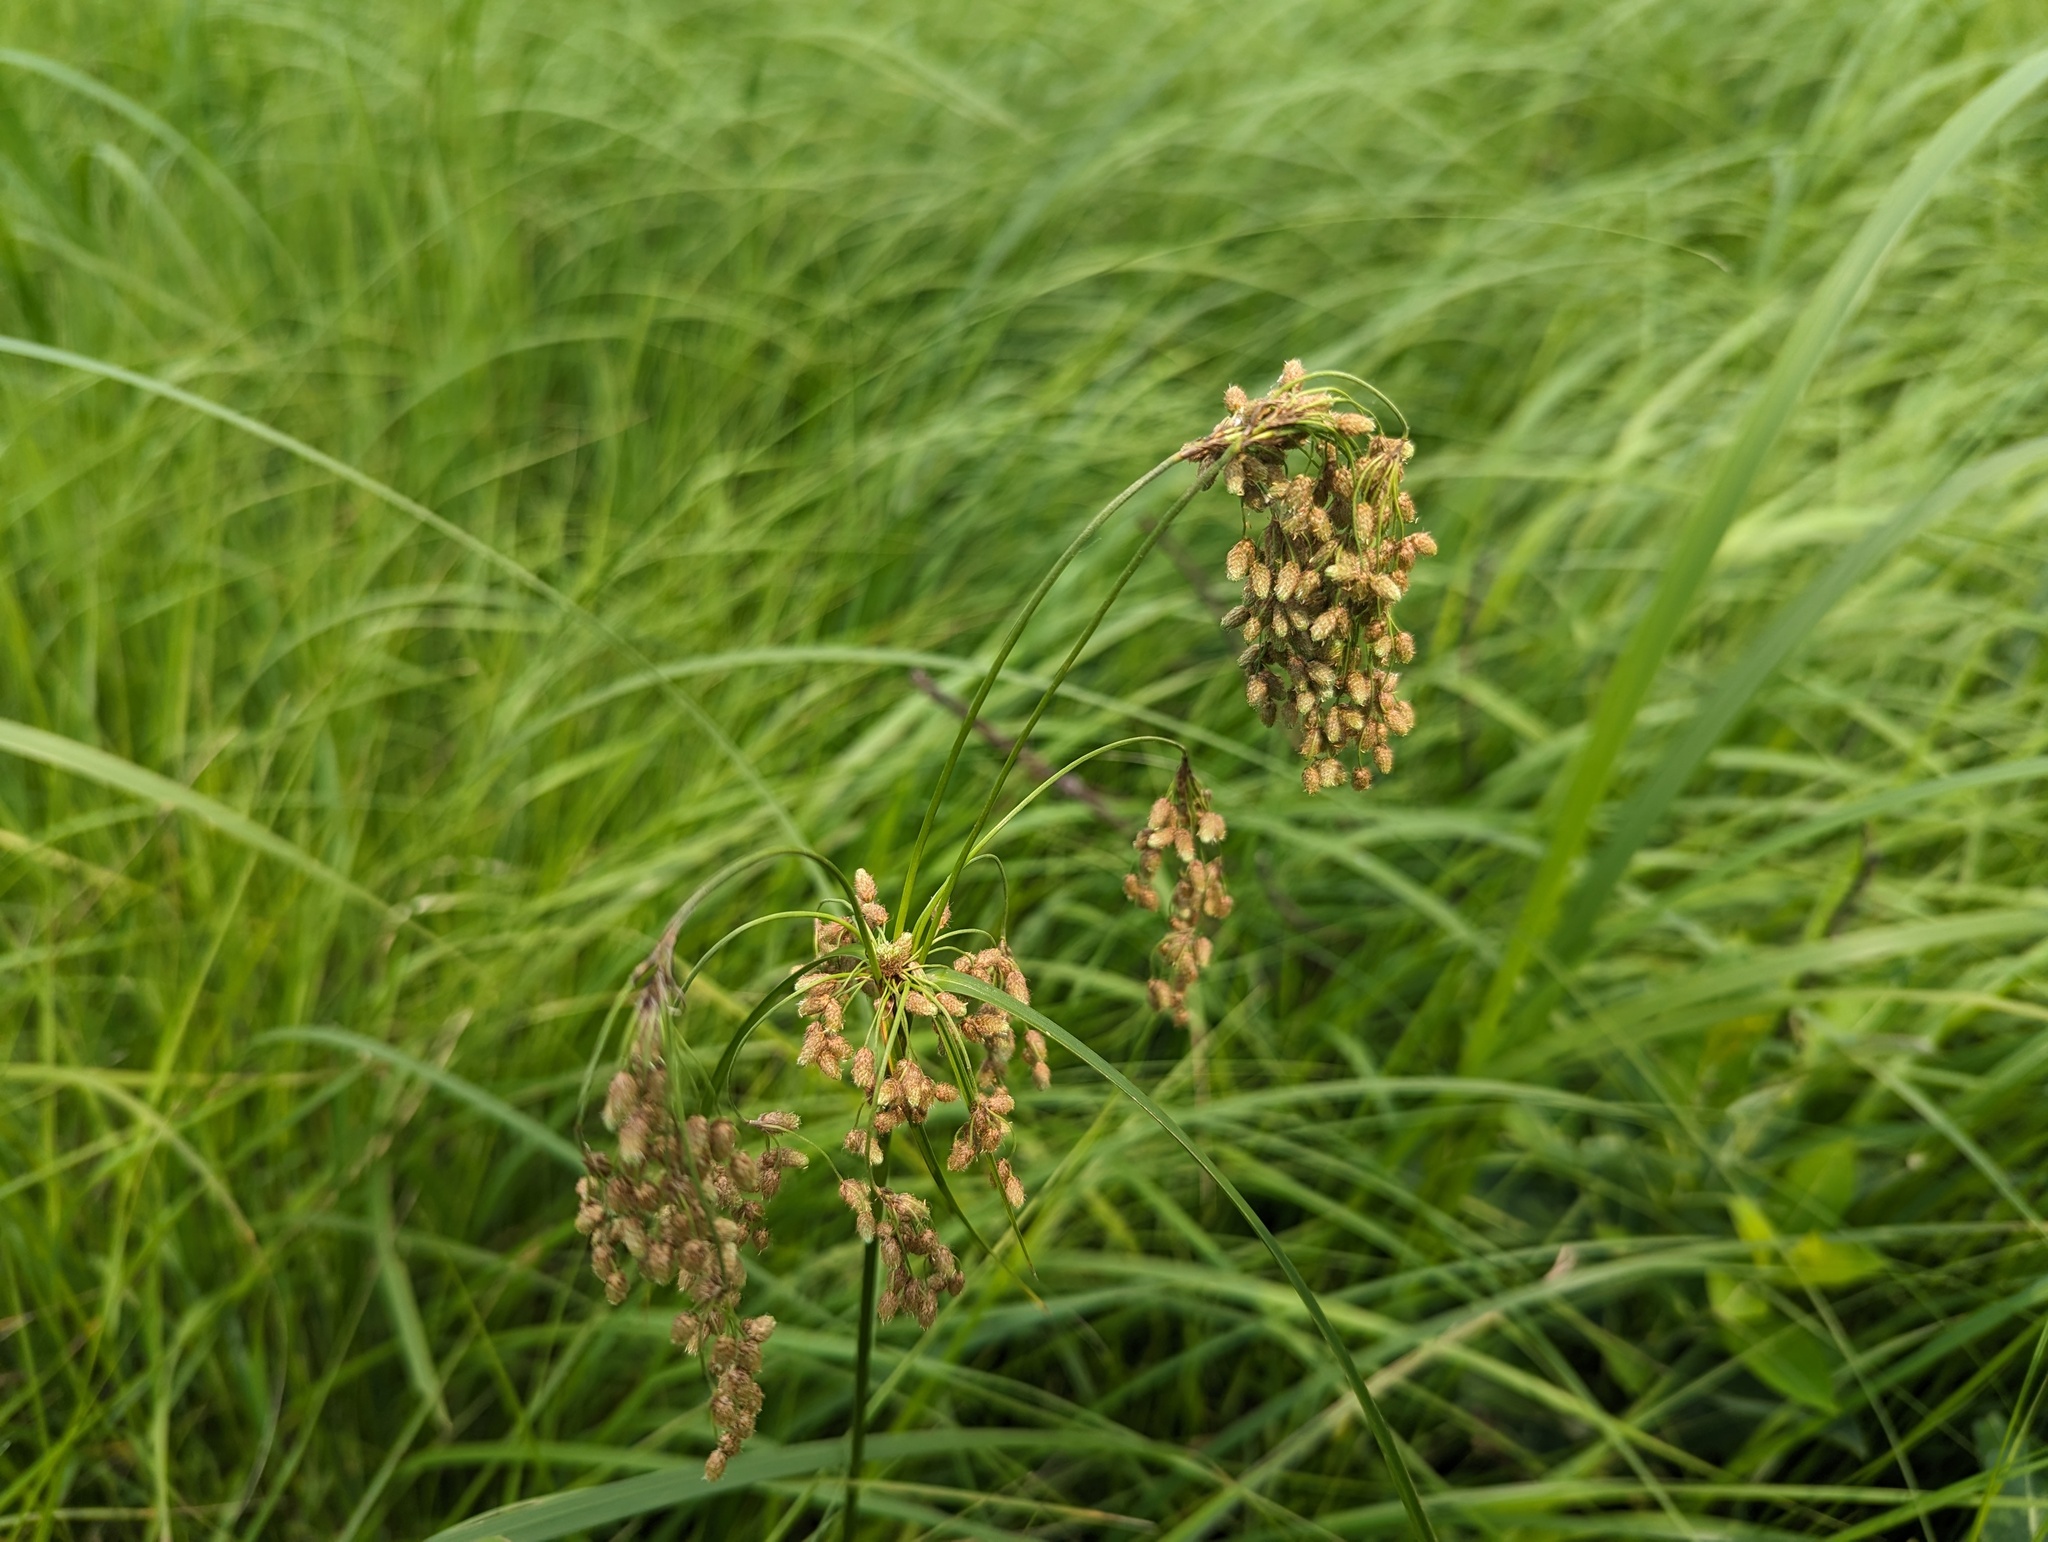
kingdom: Plantae
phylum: Tracheophyta
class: Liliopsida
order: Poales
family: Cyperaceae
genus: Scirpus
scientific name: Scirpus pendulus
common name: Nodding bulrush
